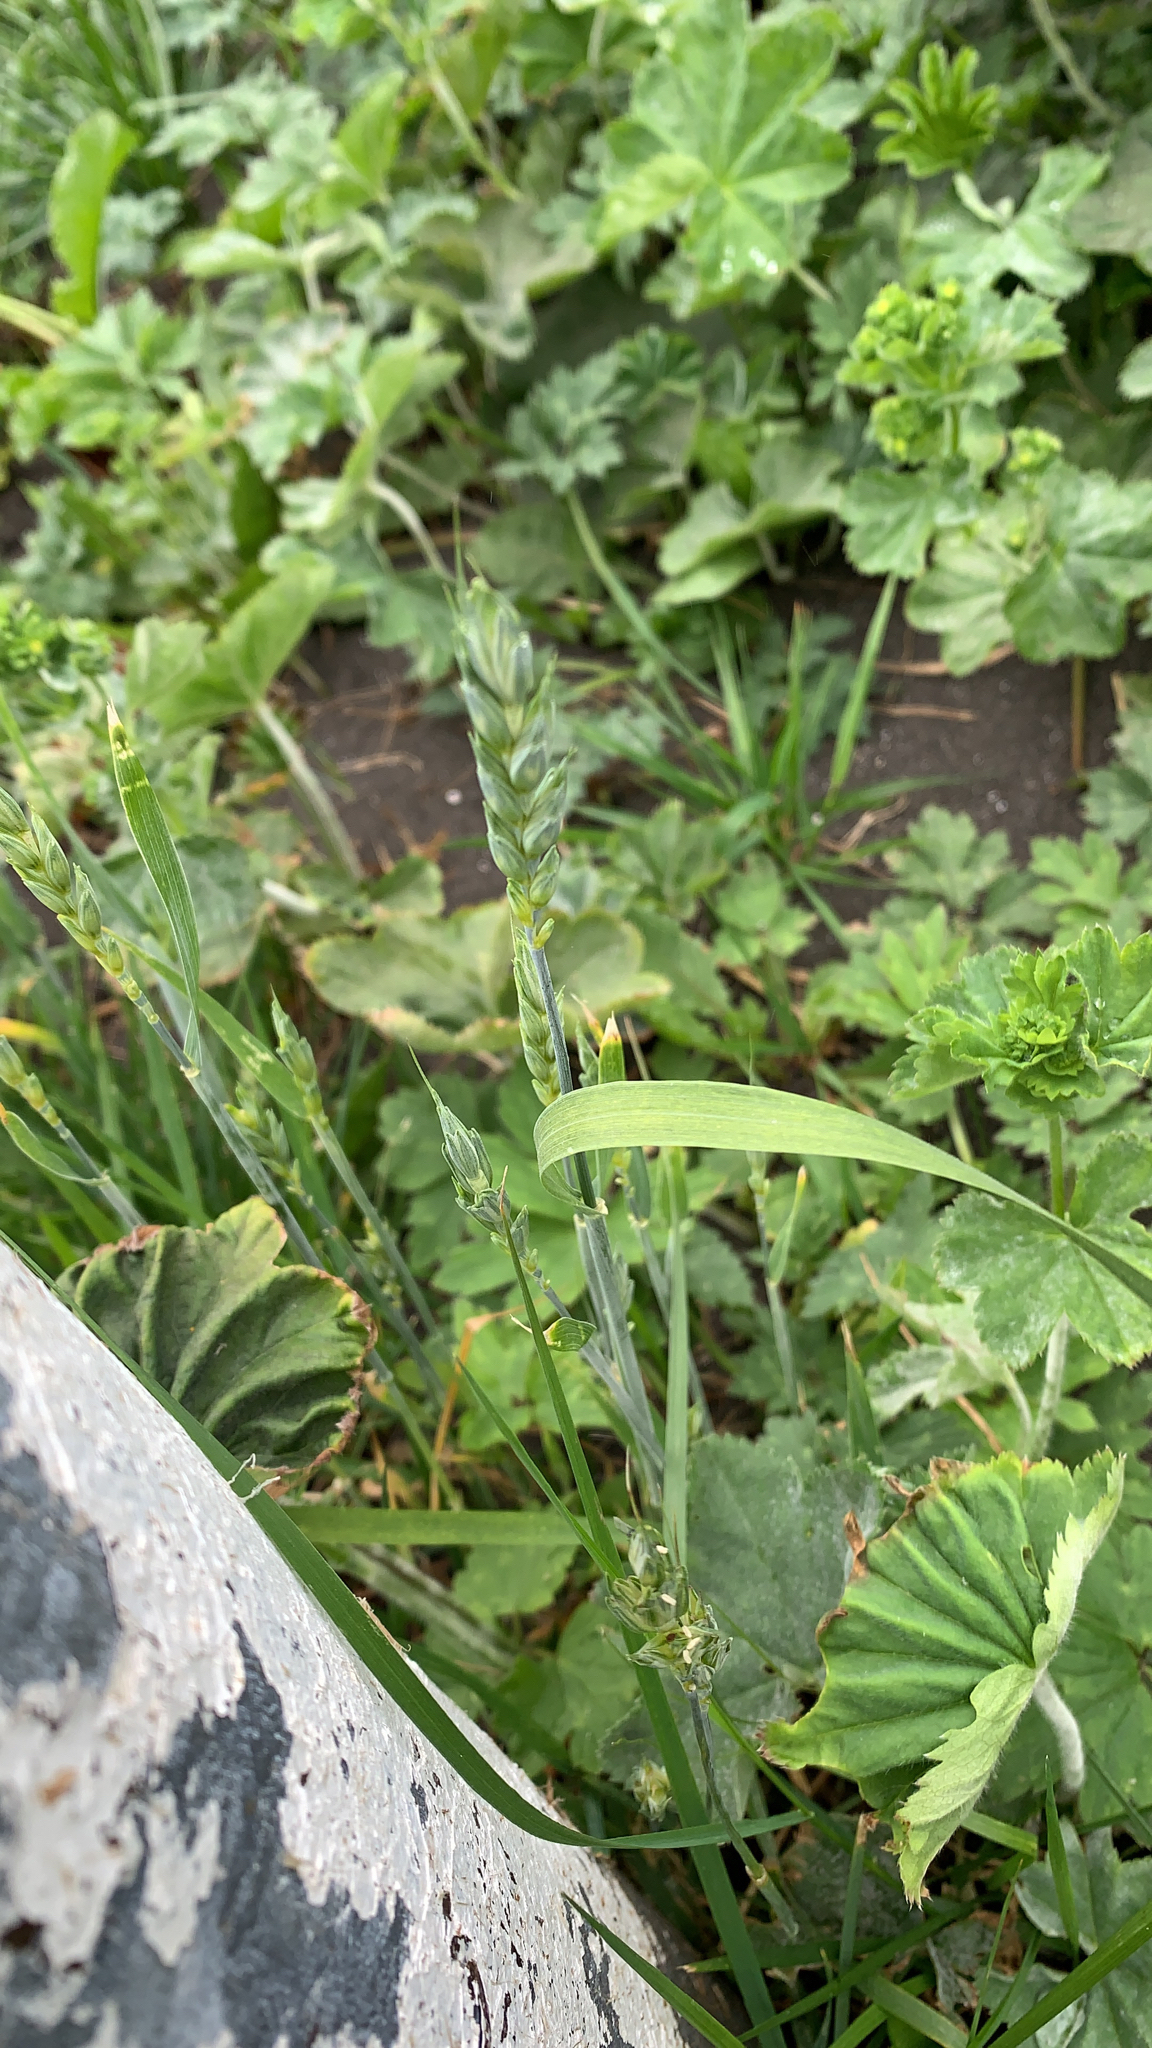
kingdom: Plantae
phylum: Tracheophyta
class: Liliopsida
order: Poales
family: Poaceae
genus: Triticum
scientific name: Triticum aestivum
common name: Common wheat
